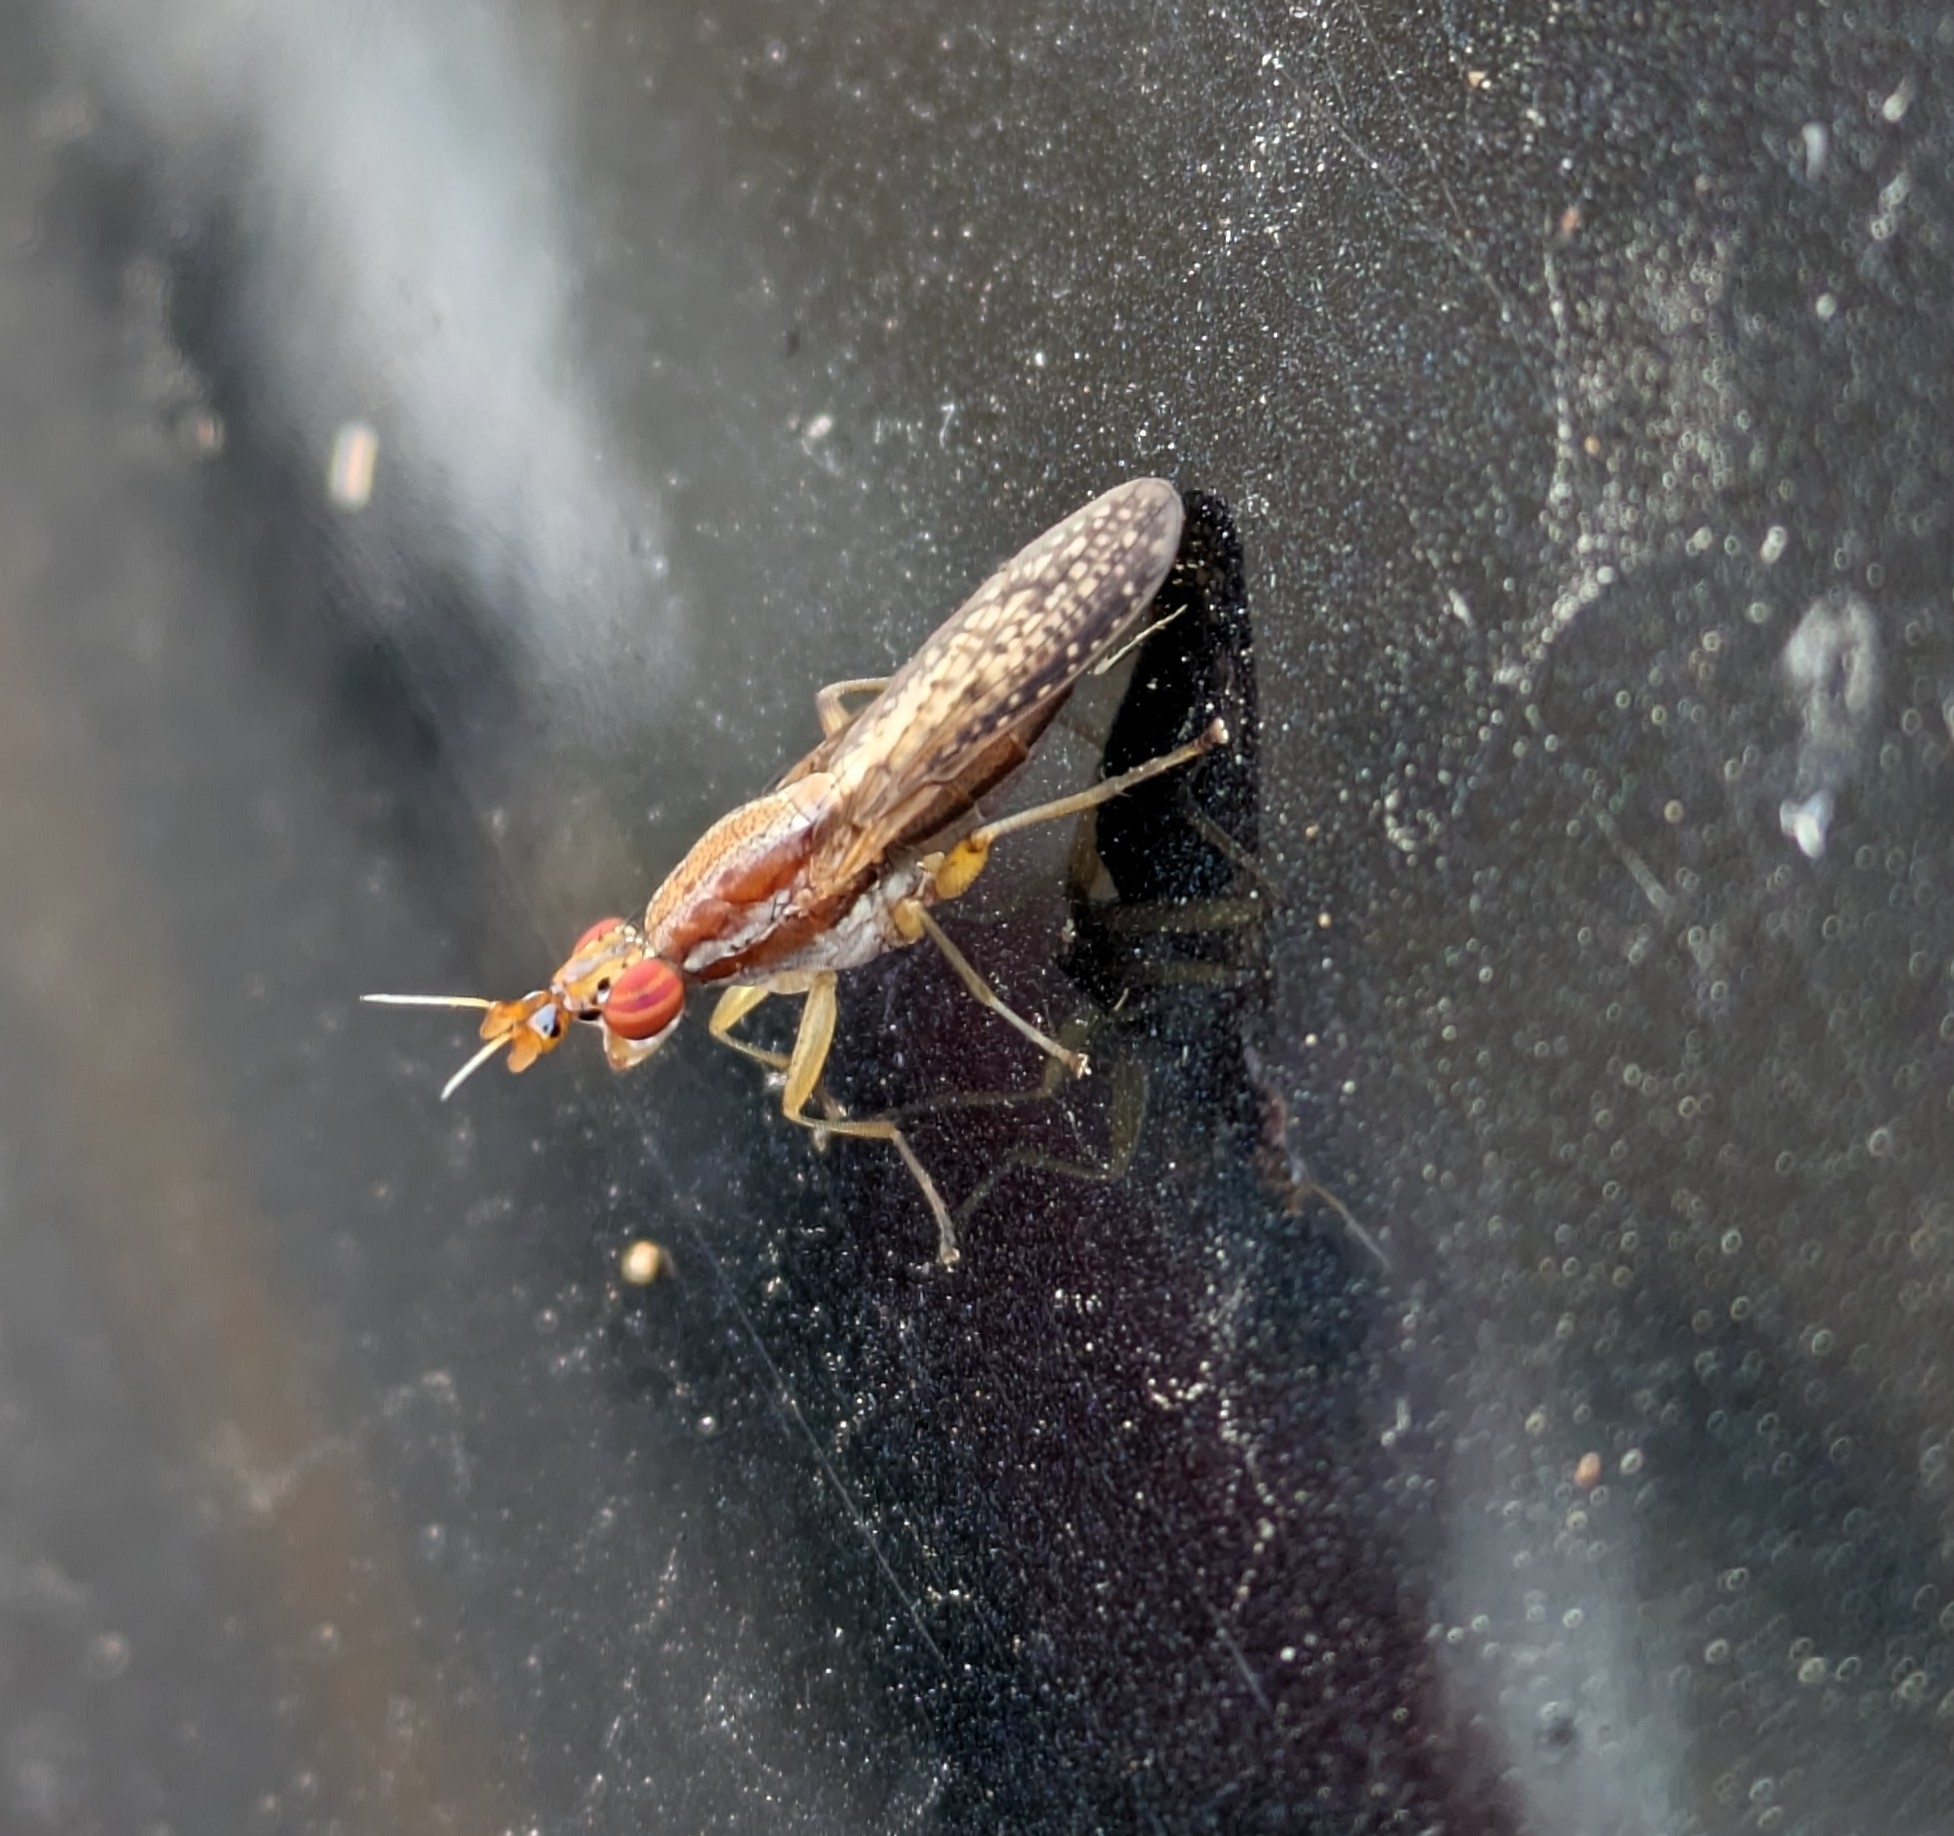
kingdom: Animalia
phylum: Arthropoda
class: Insecta
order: Diptera
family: Sciomyzidae
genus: Limnia
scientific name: Limnia shannoni
